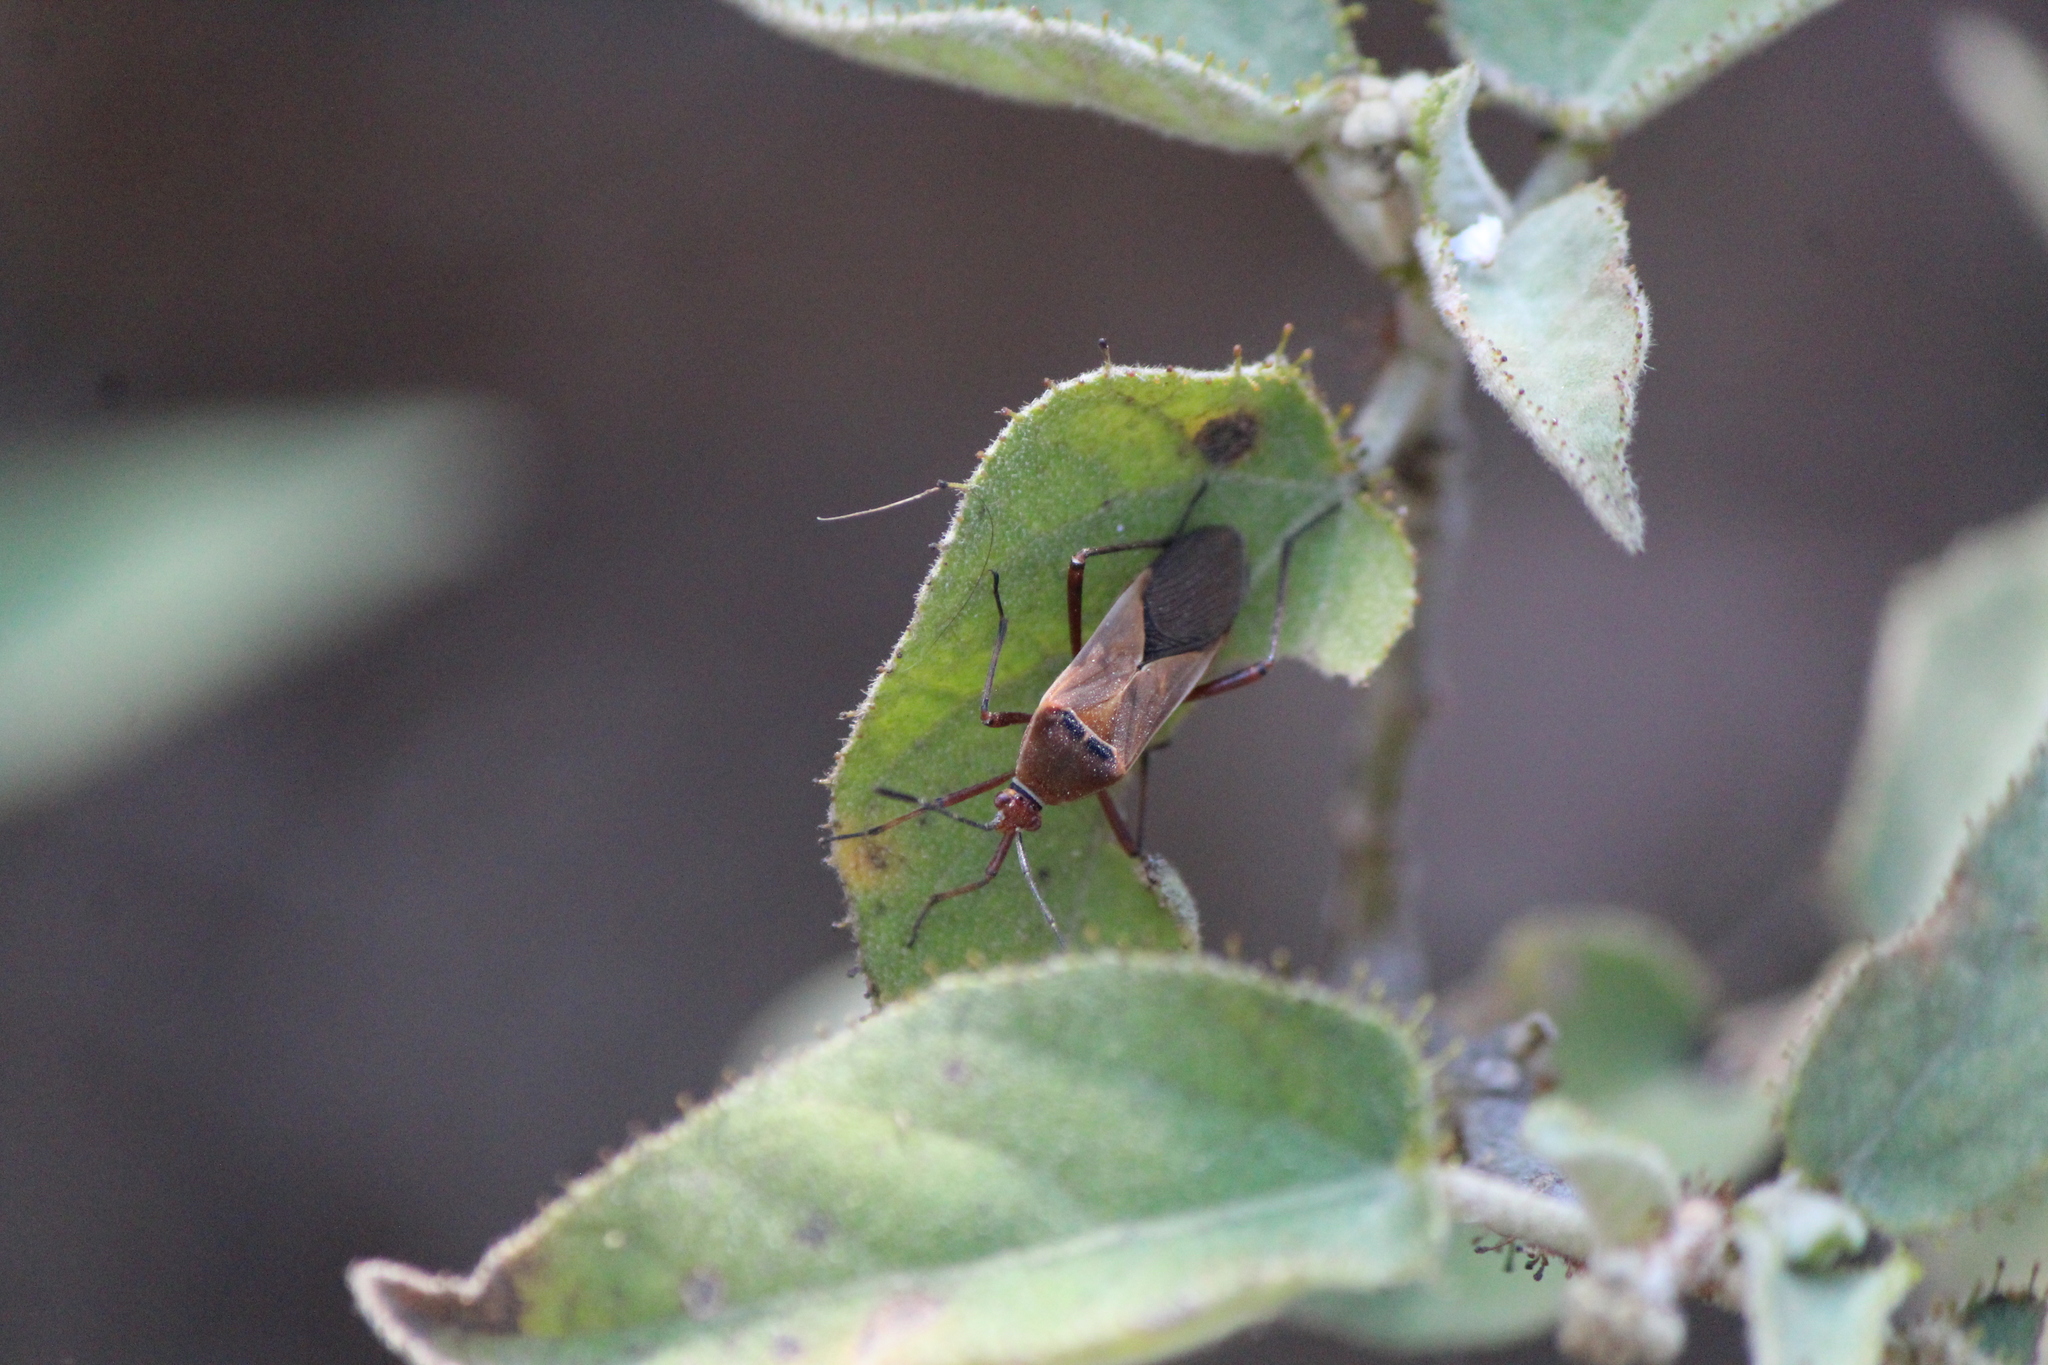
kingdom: Animalia
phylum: Arthropoda
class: Insecta
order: Hemiptera
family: Coreidae
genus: Hypselonotus
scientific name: Hypselonotus interruptus
